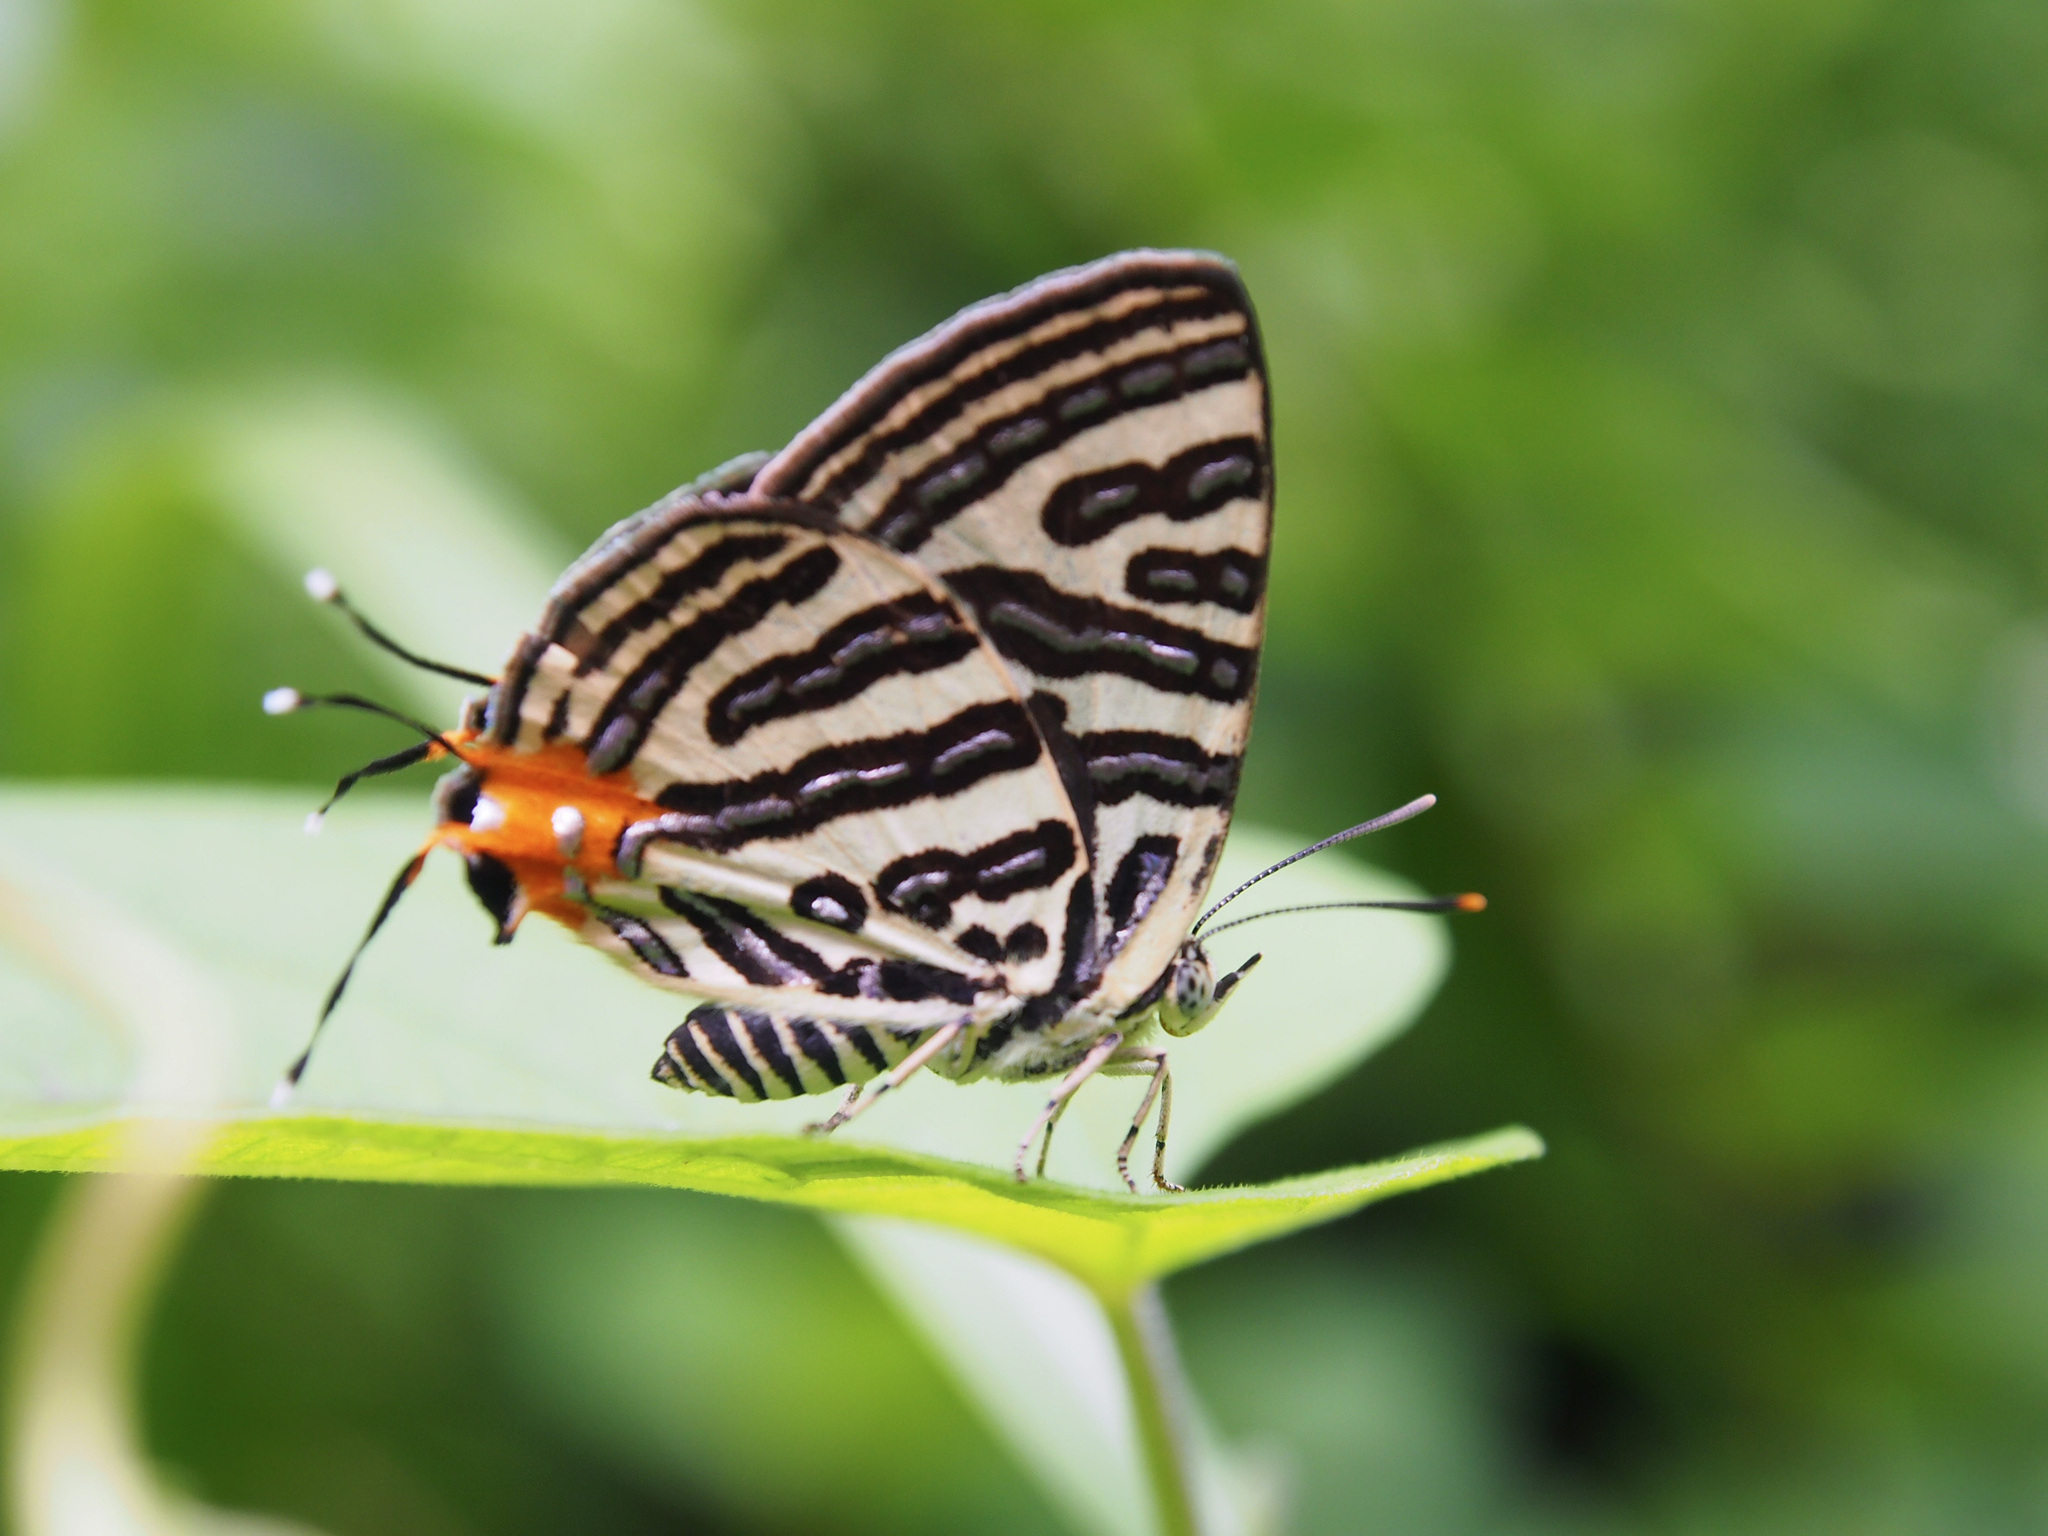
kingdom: Animalia
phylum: Arthropoda
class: Insecta
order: Lepidoptera
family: Lycaenidae
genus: Cigaritis
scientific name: Cigaritis syama
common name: Club silverline
